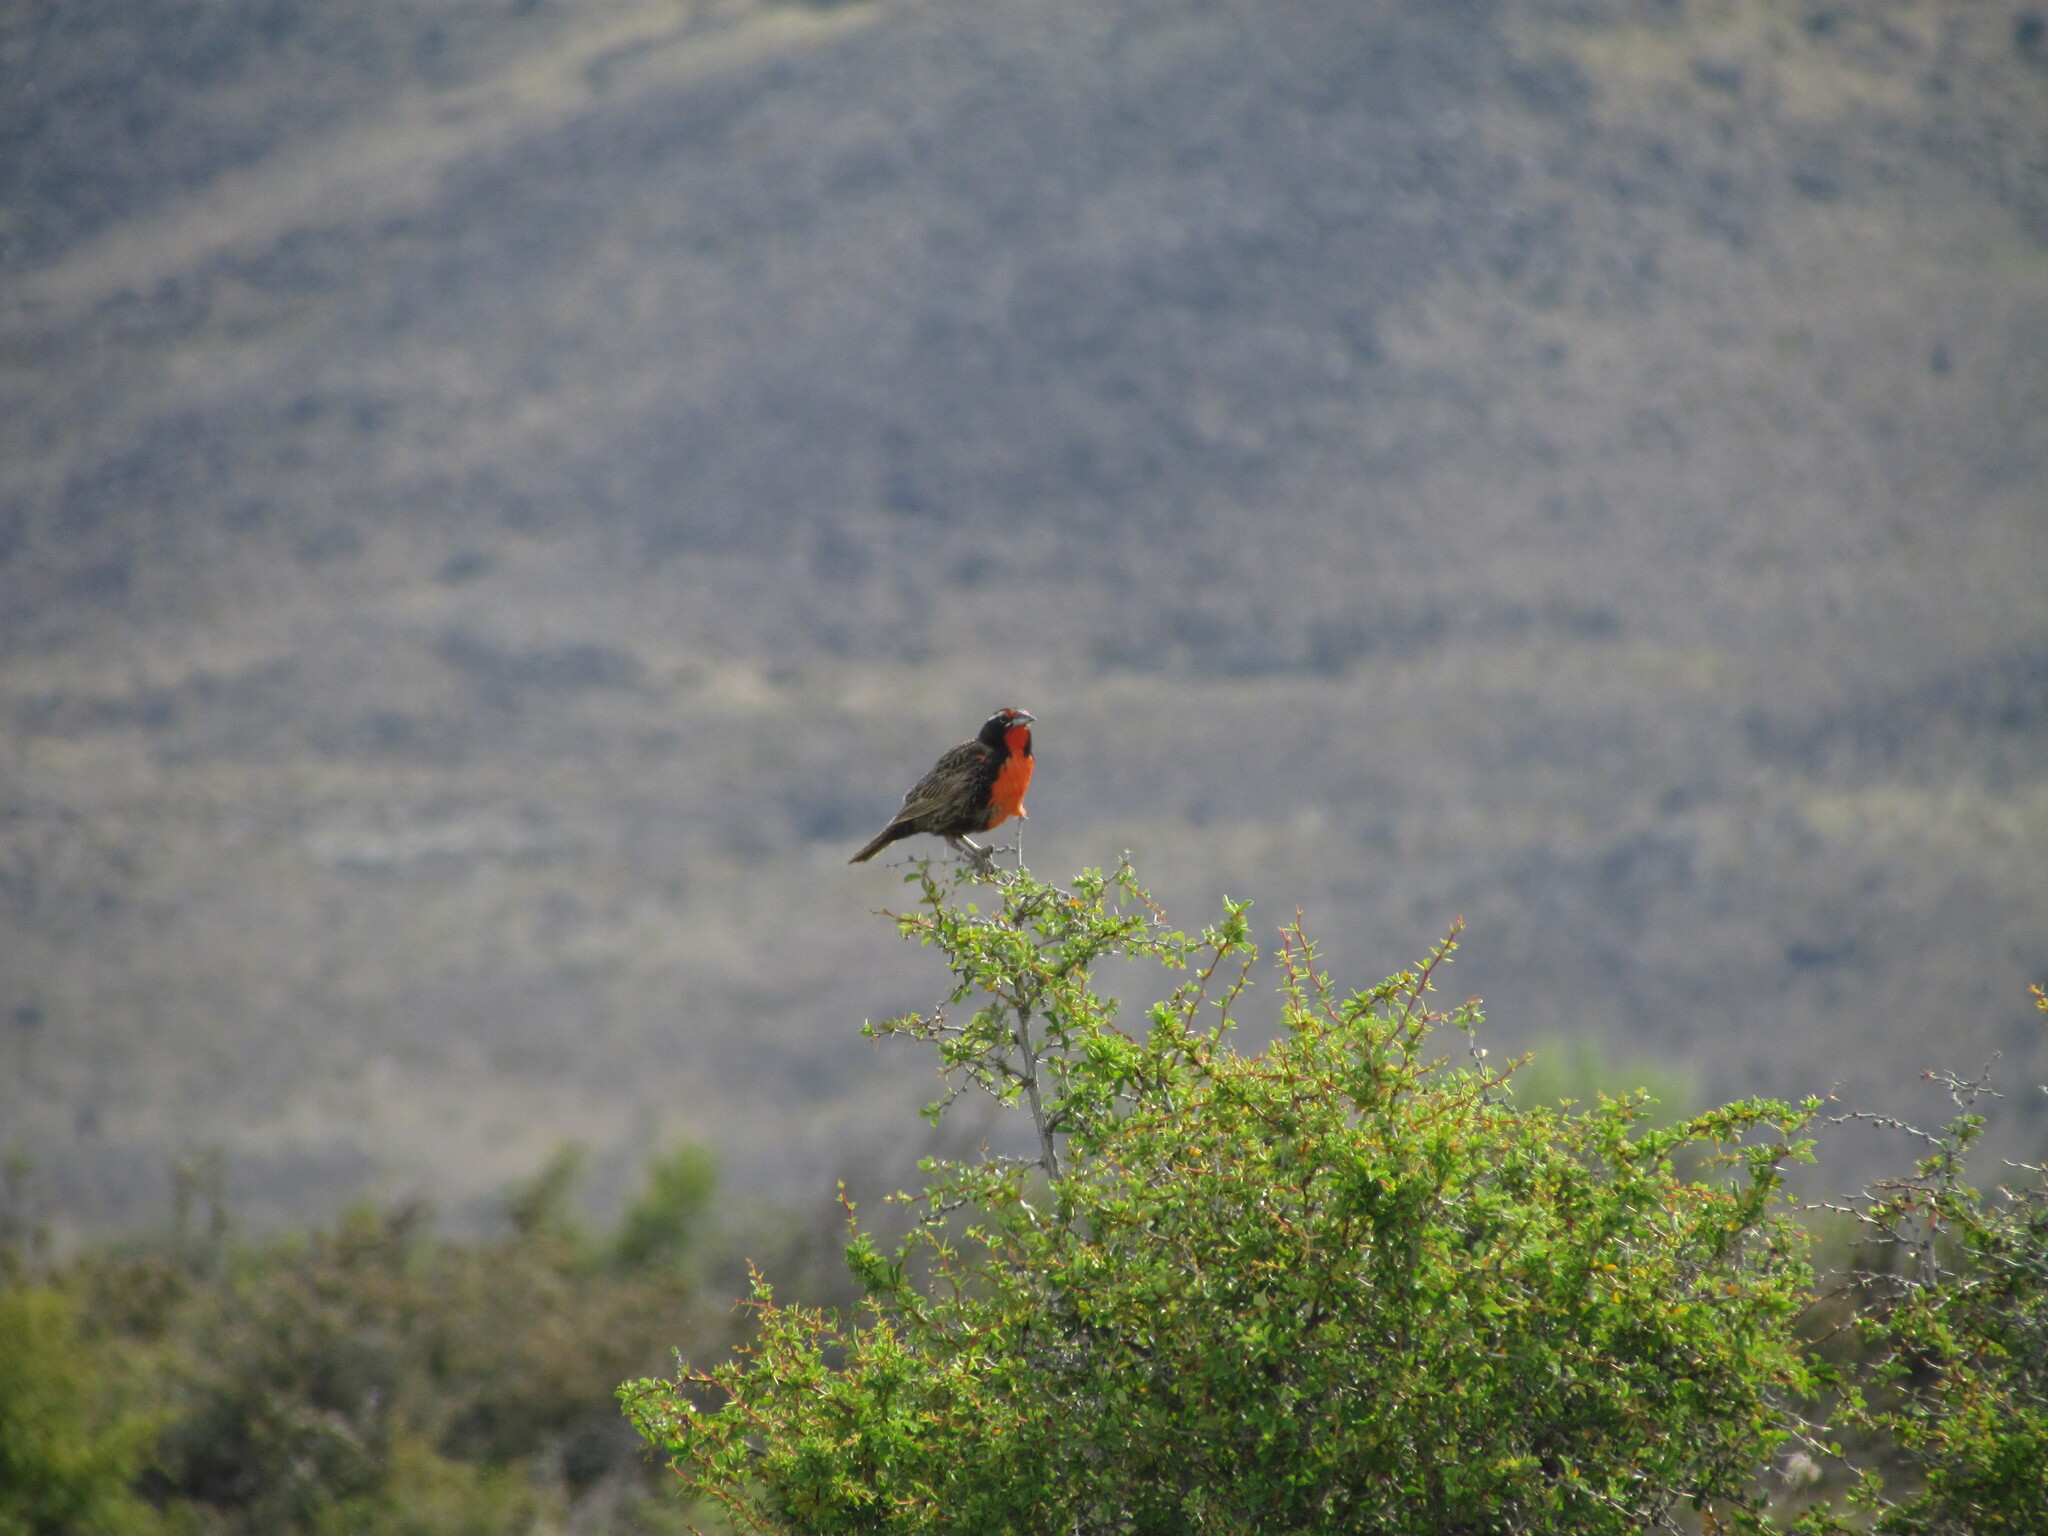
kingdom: Animalia
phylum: Chordata
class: Aves
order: Passeriformes
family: Icteridae
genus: Sturnella
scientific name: Sturnella loyca
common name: Long-tailed meadowlark
